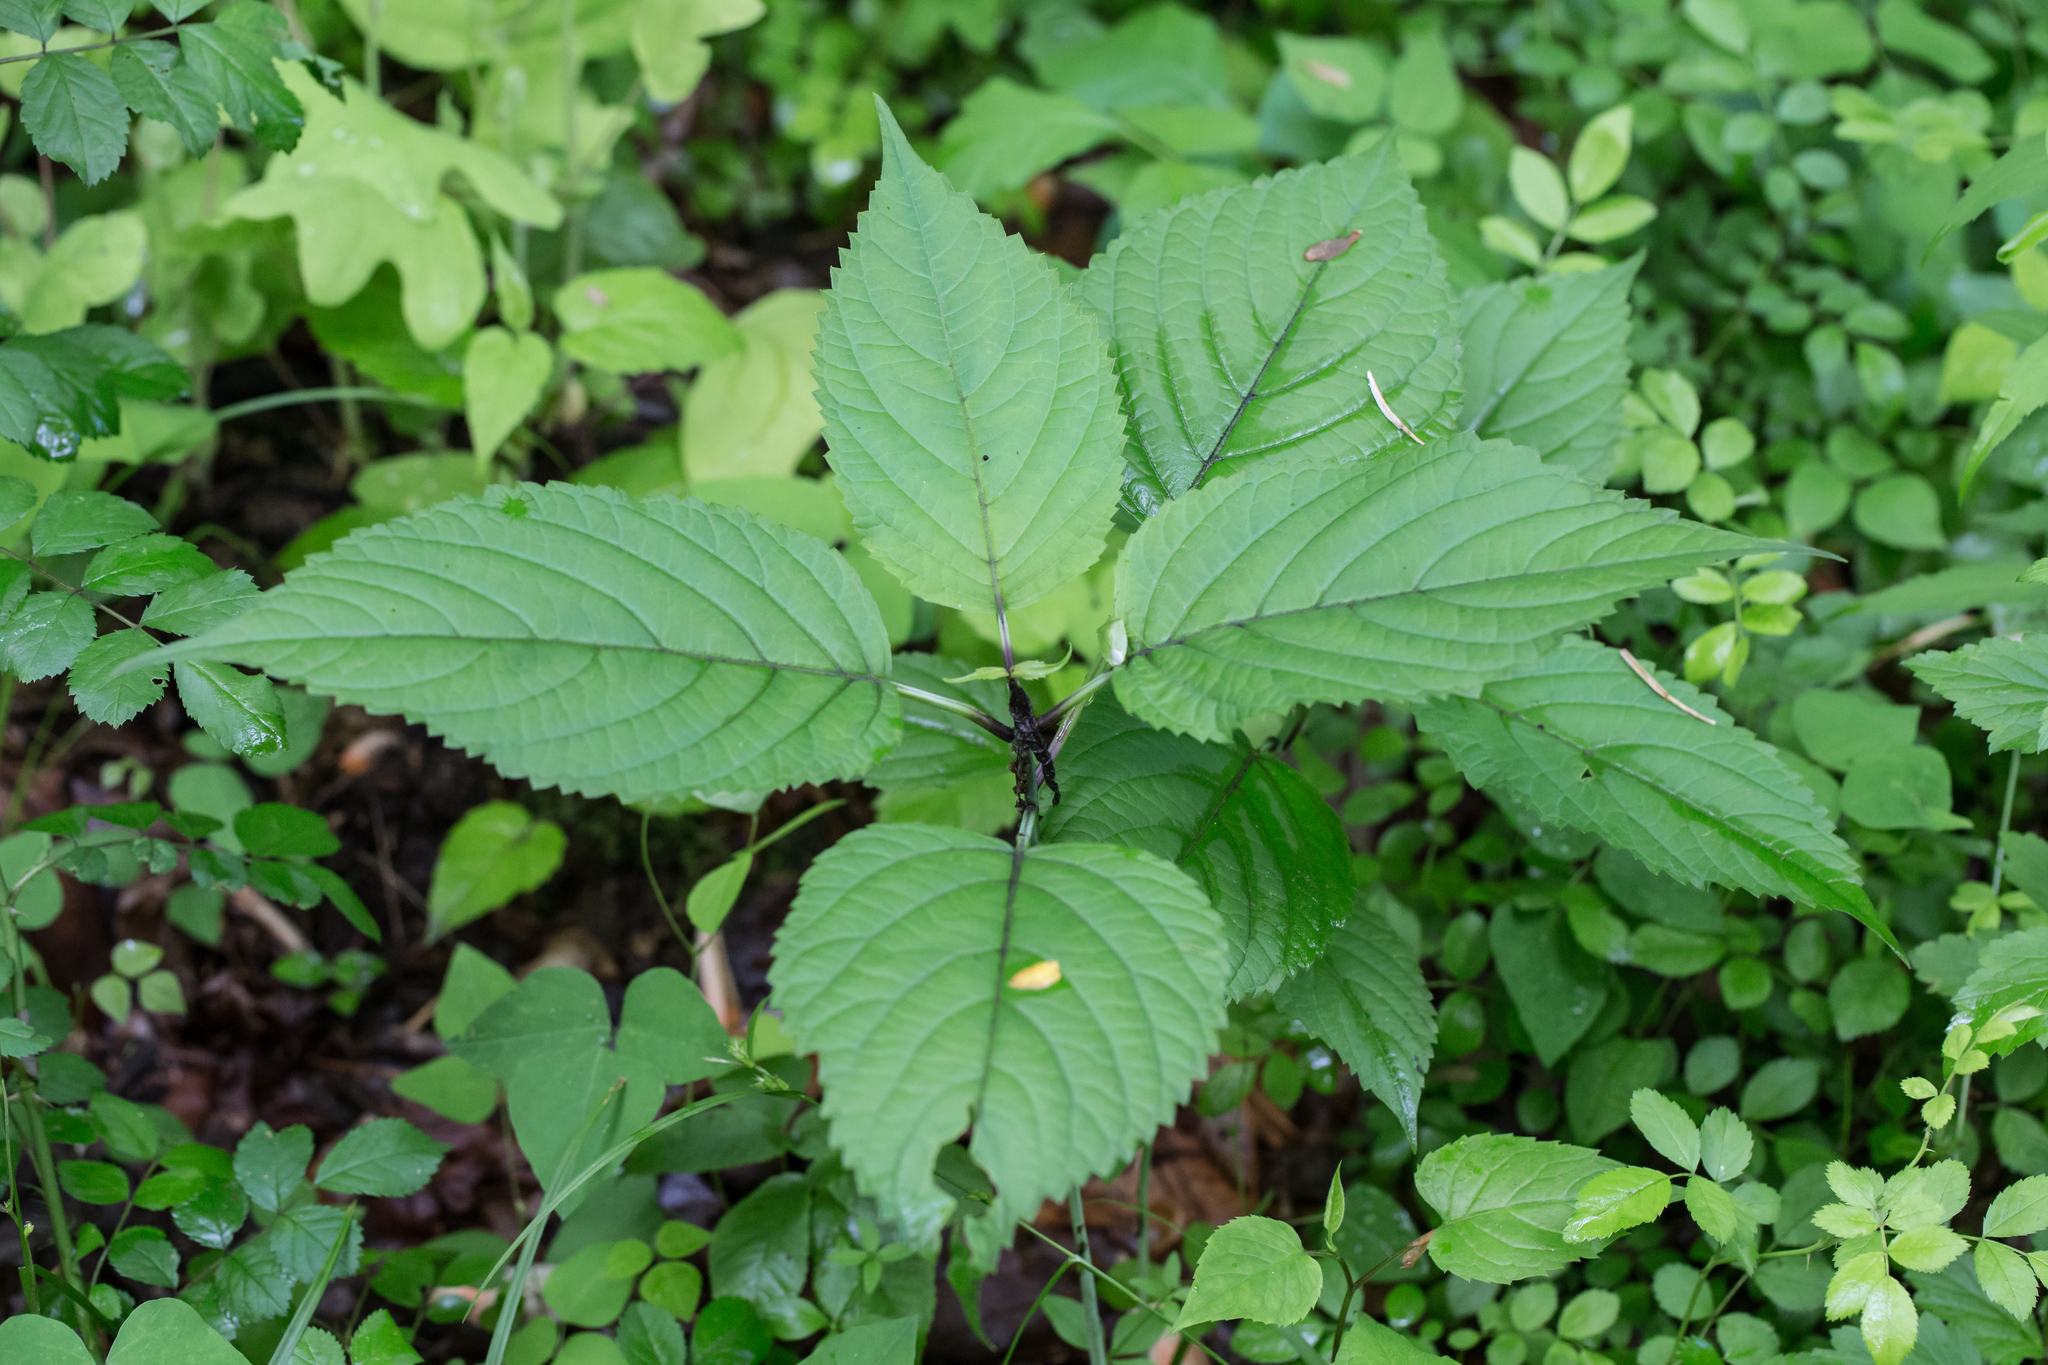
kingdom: Plantae
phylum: Tracheophyta
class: Magnoliopsida
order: Lamiales
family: Lamiaceae
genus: Collinsonia
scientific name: Collinsonia canadensis
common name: Northern horsebalm
